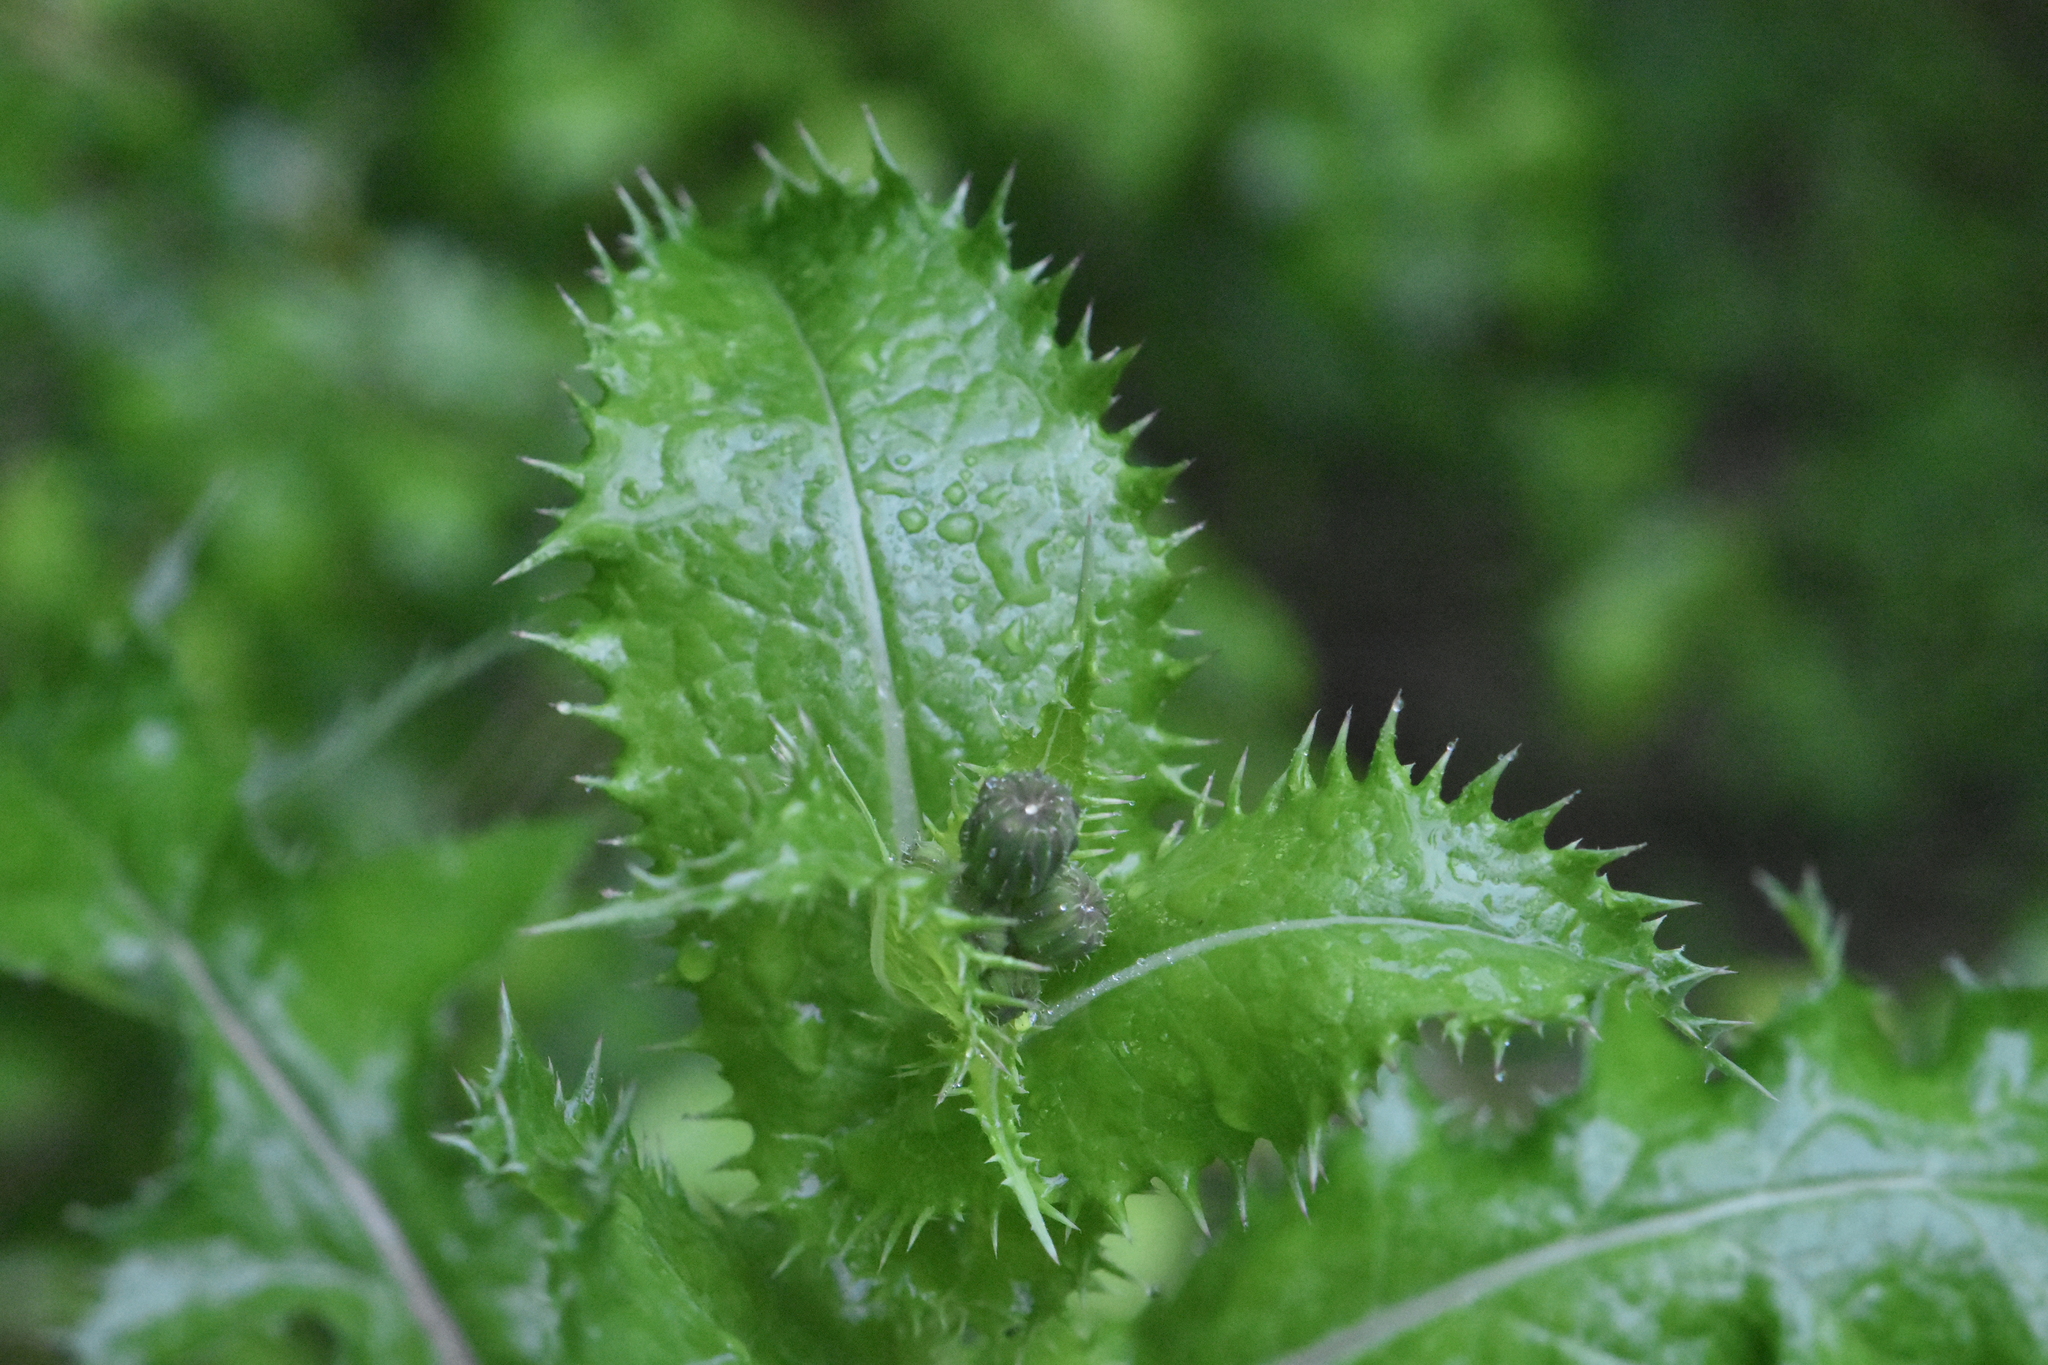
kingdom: Plantae
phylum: Tracheophyta
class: Magnoliopsida
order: Asterales
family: Asteraceae
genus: Sonchus
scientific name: Sonchus asper
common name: Prickly sow-thistle
